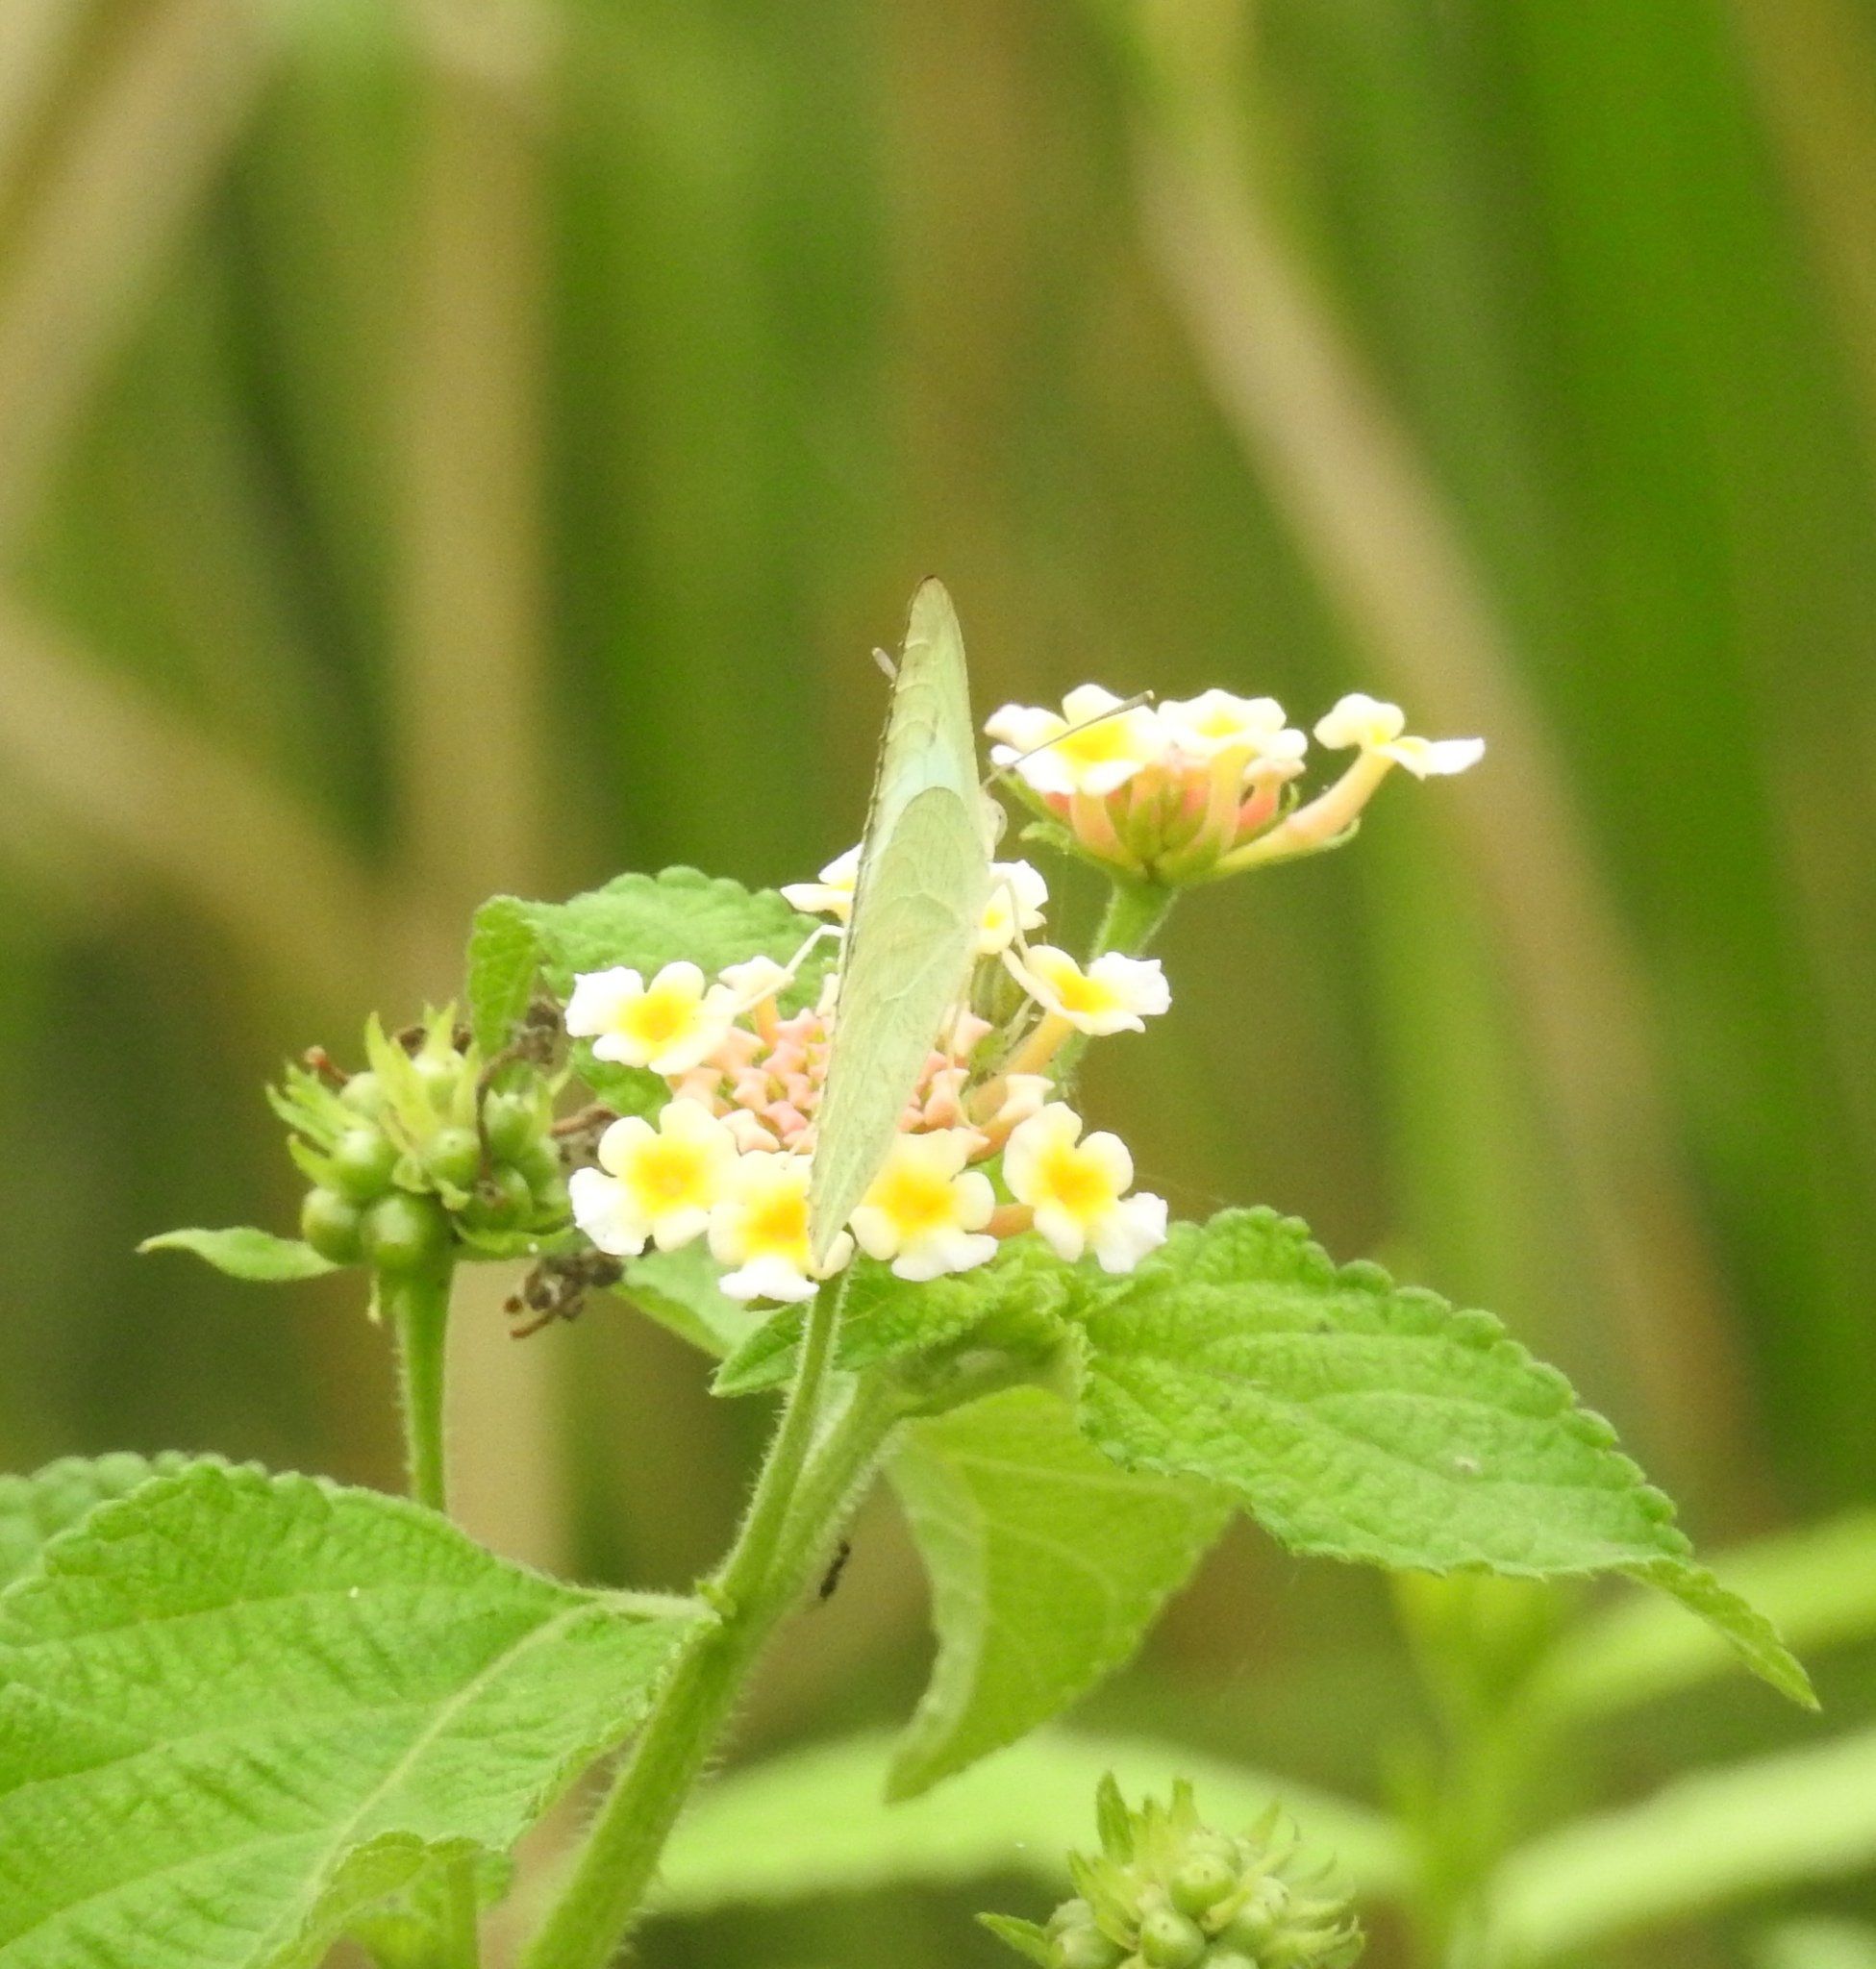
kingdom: Animalia
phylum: Arthropoda
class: Insecta
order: Lepidoptera
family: Pieridae
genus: Catopsilia
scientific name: Catopsilia pyranthe
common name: Mottled emigrant
